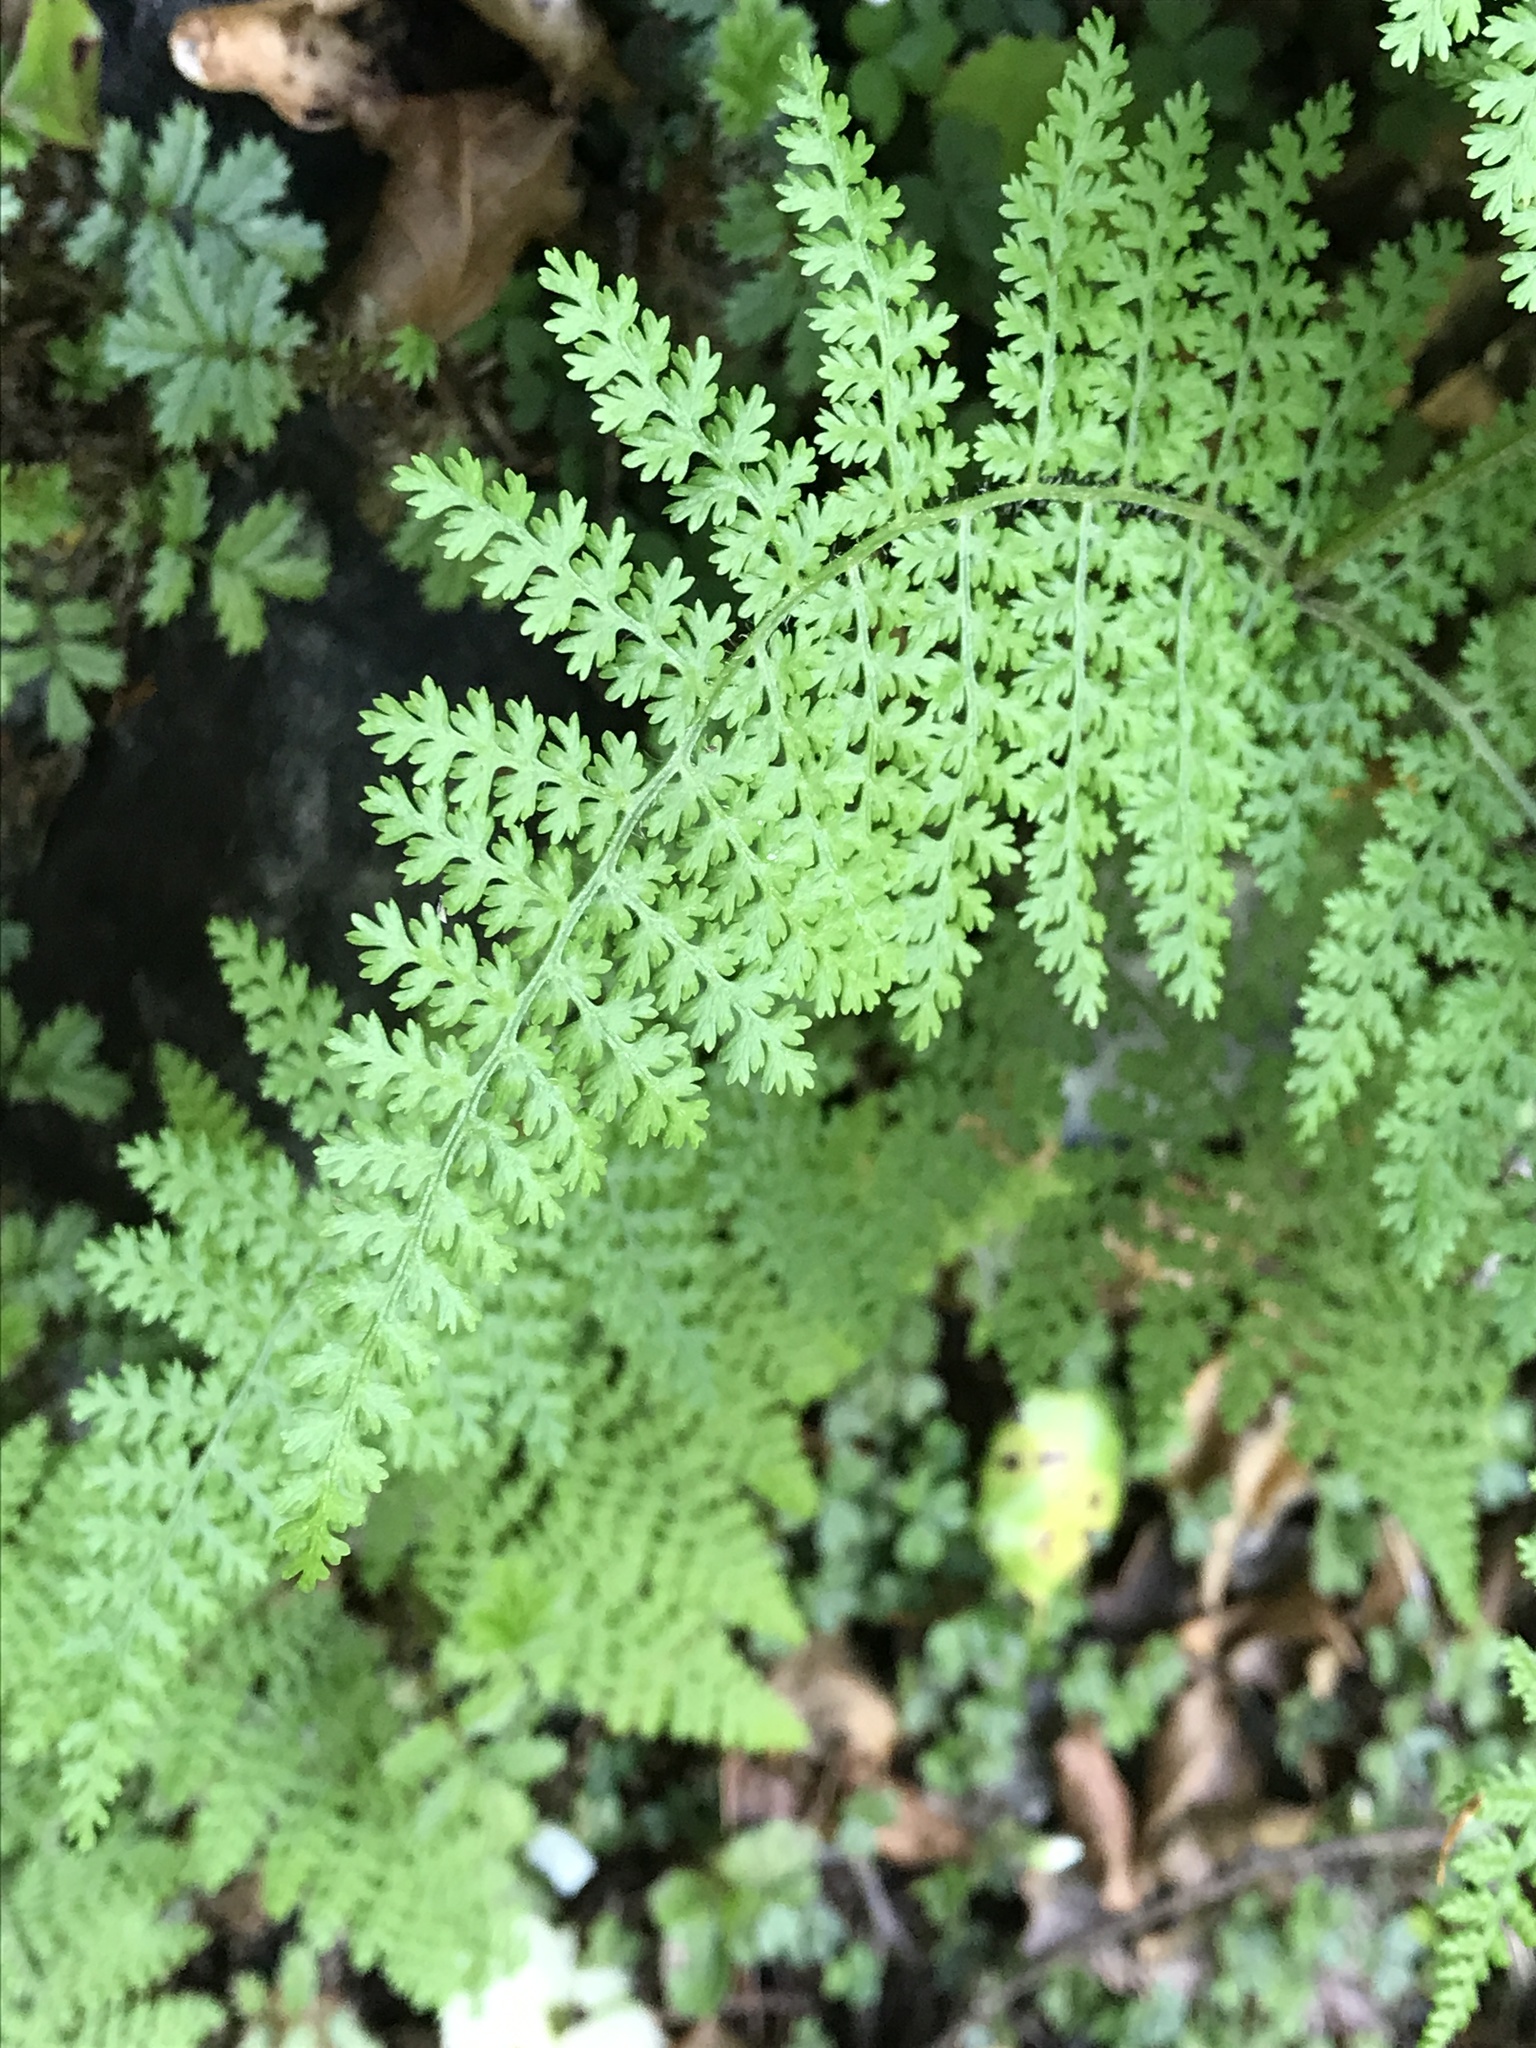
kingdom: Plantae
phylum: Tracheophyta
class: Polypodiopsida
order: Polypodiales
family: Dennstaedtiaceae
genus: Hypolepis
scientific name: Hypolepis millefolium
